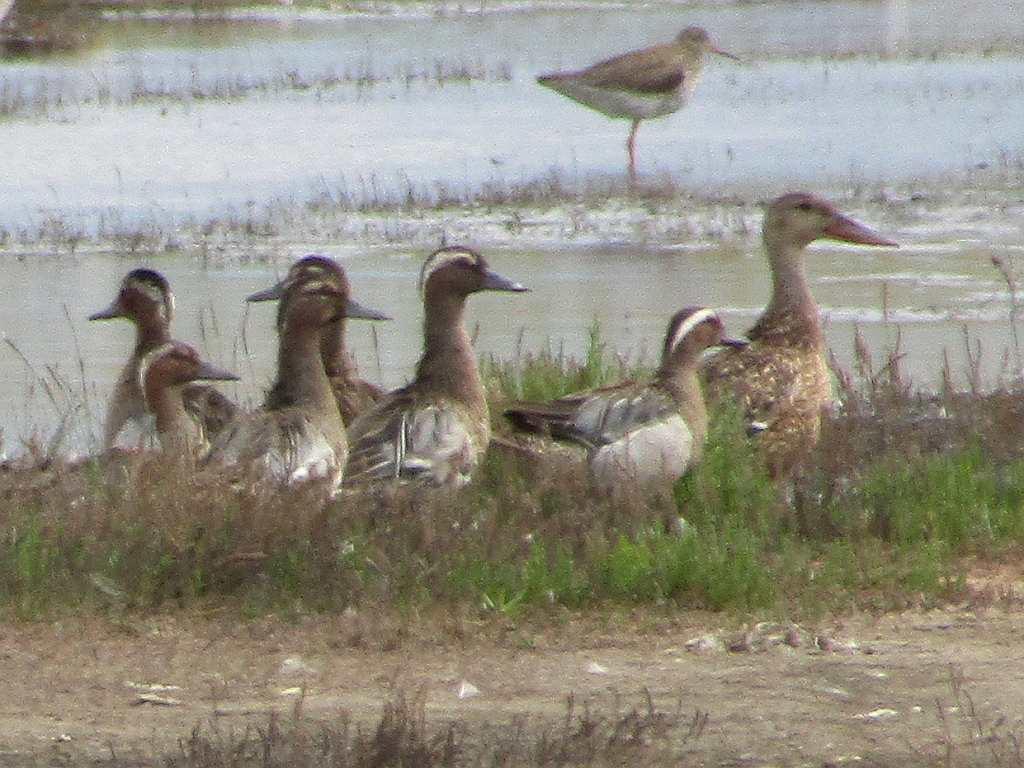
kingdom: Animalia
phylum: Chordata
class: Aves
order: Anseriformes
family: Anatidae
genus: Spatula
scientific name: Spatula querquedula
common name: Garganey
